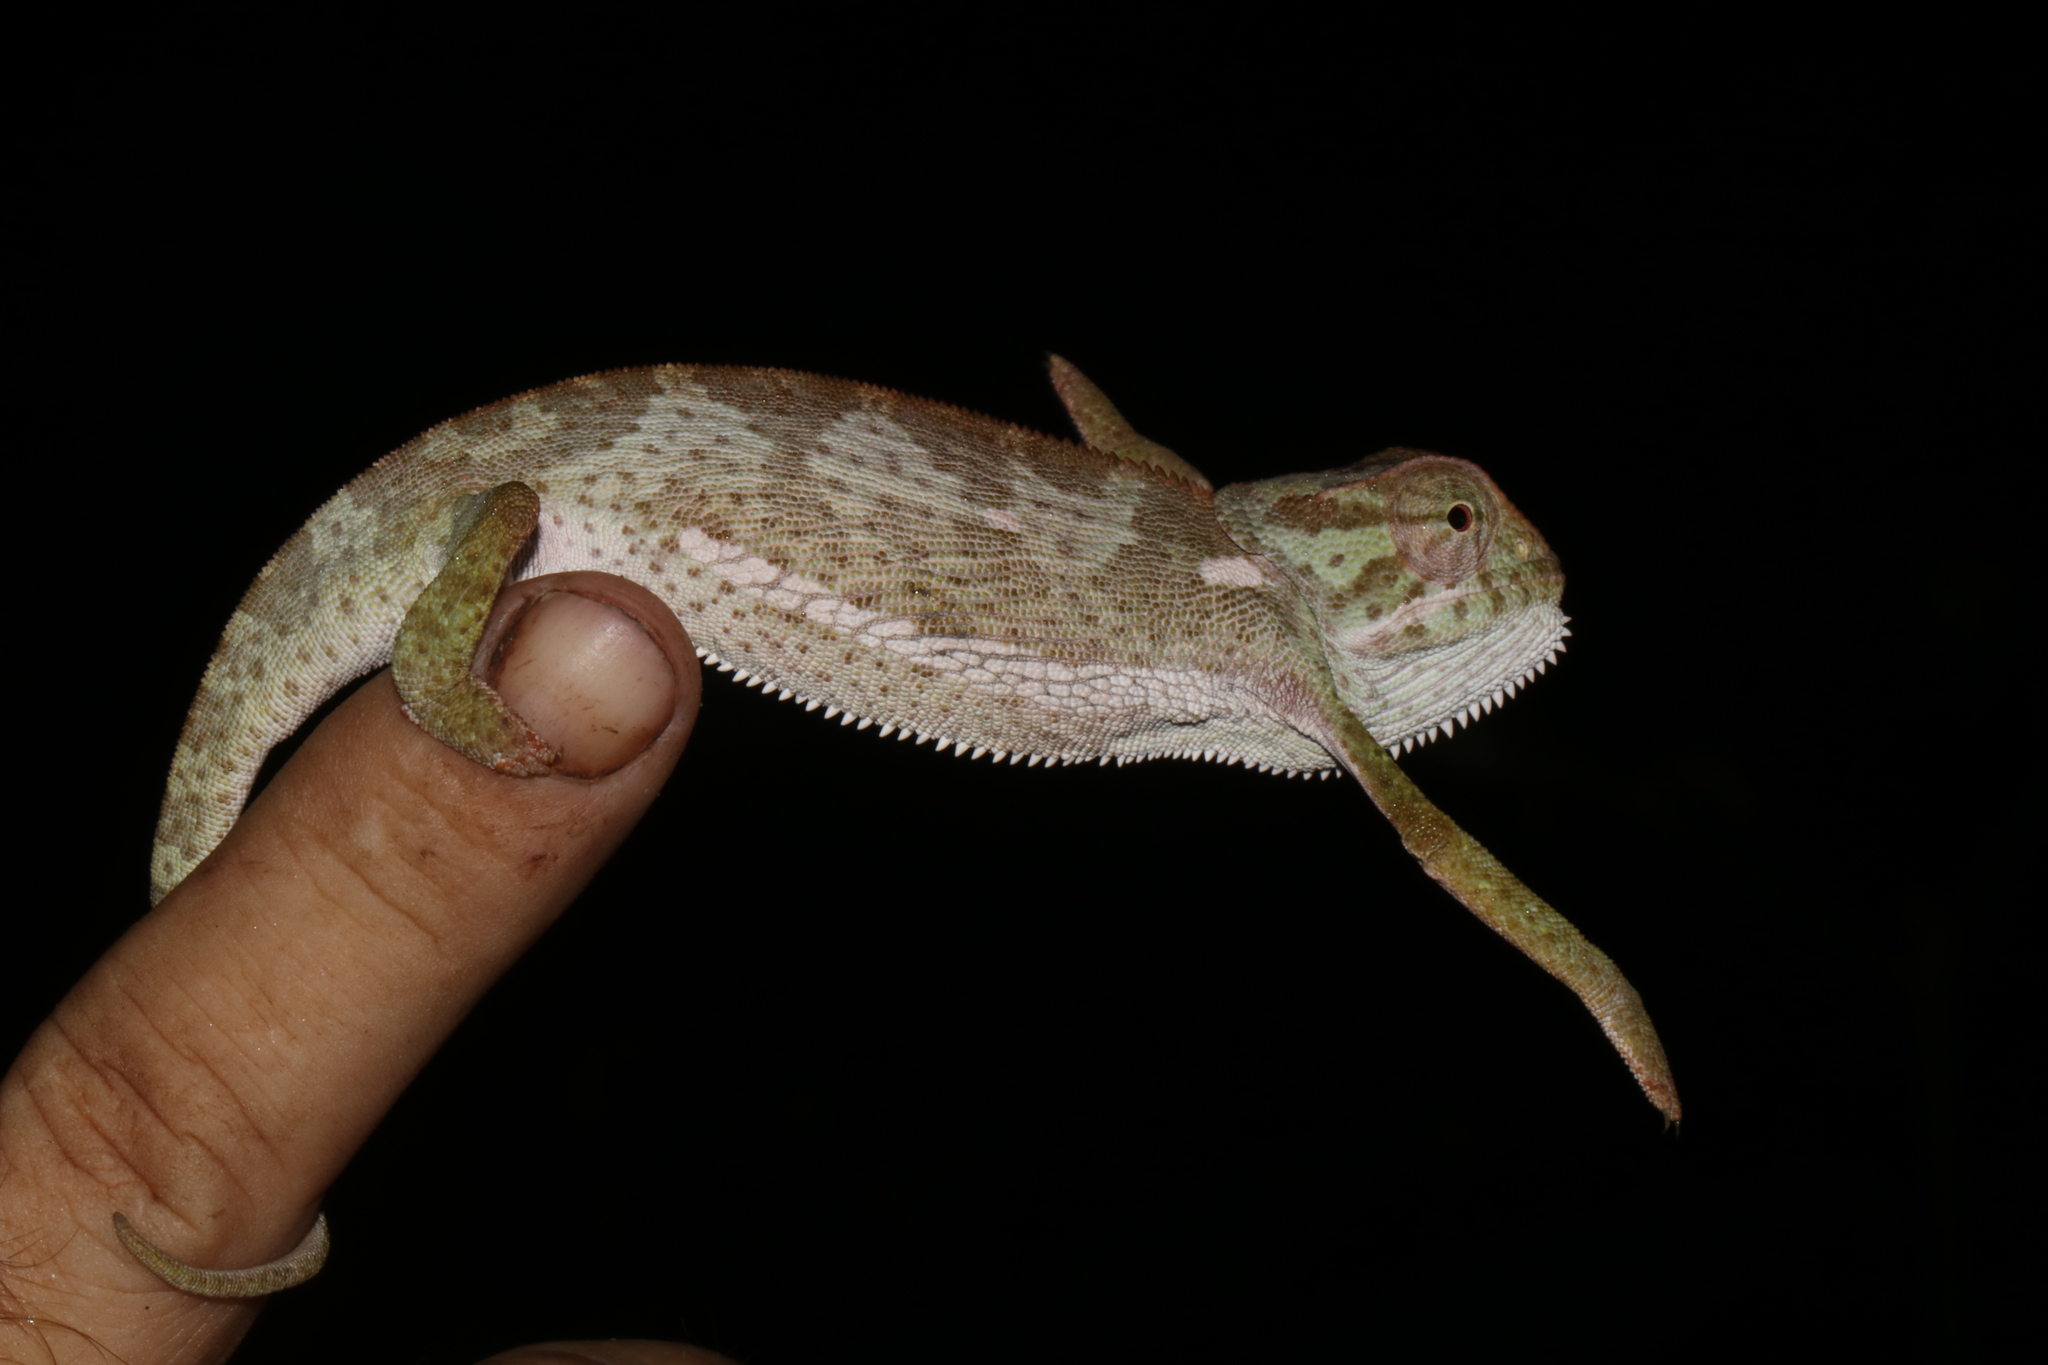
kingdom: Animalia
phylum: Chordata
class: Squamata
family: Chamaeleonidae
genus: Chamaeleo
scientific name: Chamaeleo dilepis
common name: Flapneck chameleon
